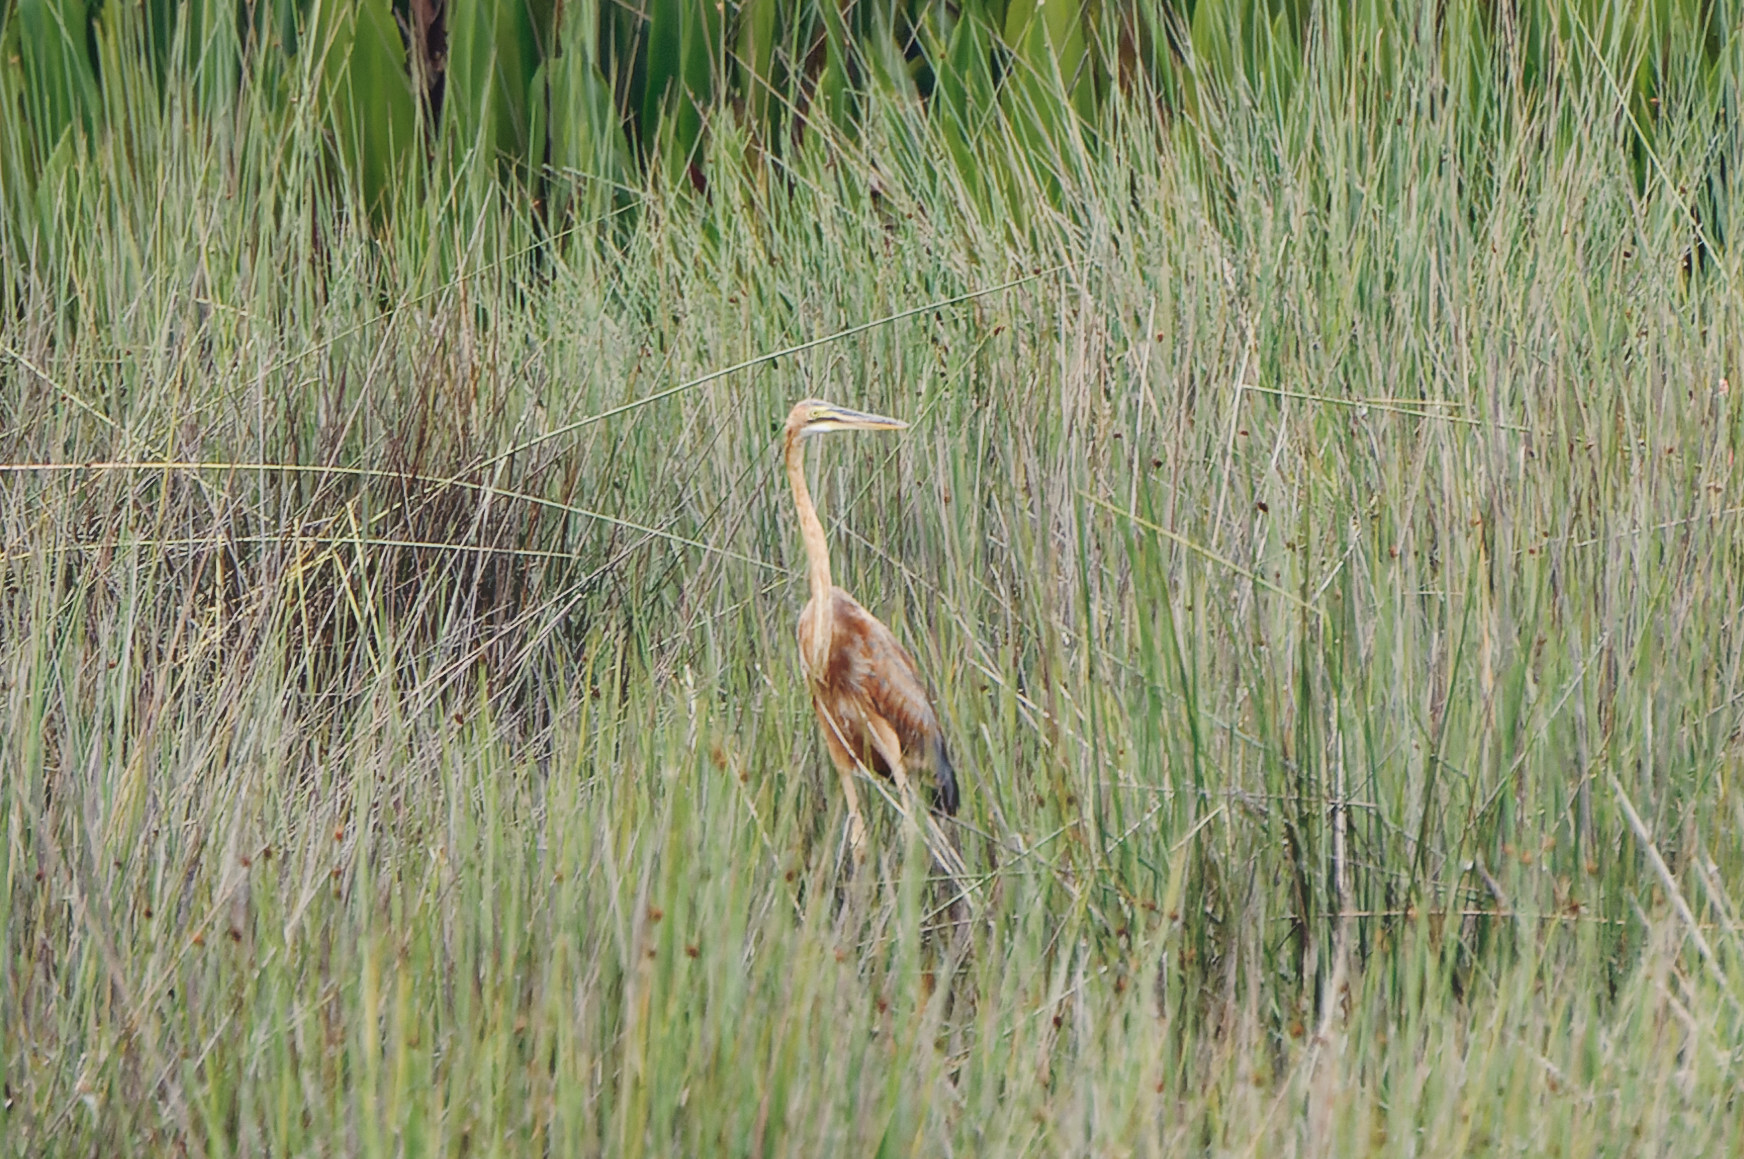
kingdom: Animalia
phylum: Chordata
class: Aves
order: Pelecaniformes
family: Ardeidae
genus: Ardea
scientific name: Ardea purpurea
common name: Purple heron
